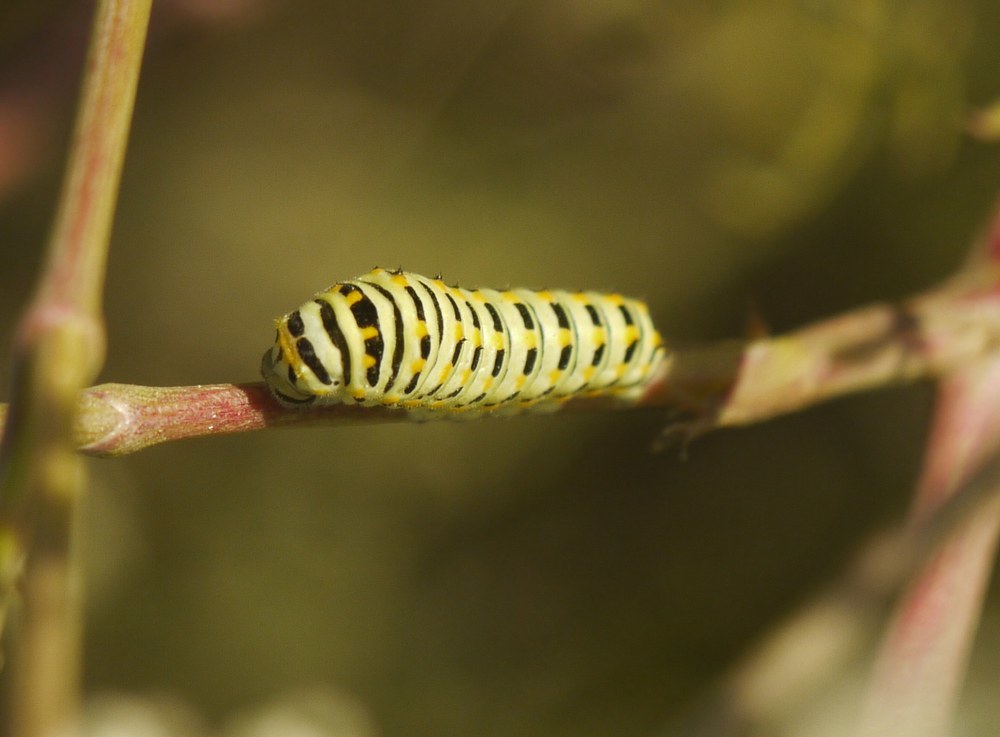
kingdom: Animalia
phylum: Arthropoda
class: Insecta
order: Lepidoptera
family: Papilionidae
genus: Papilio
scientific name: Papilio machaon
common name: Swallowtail
